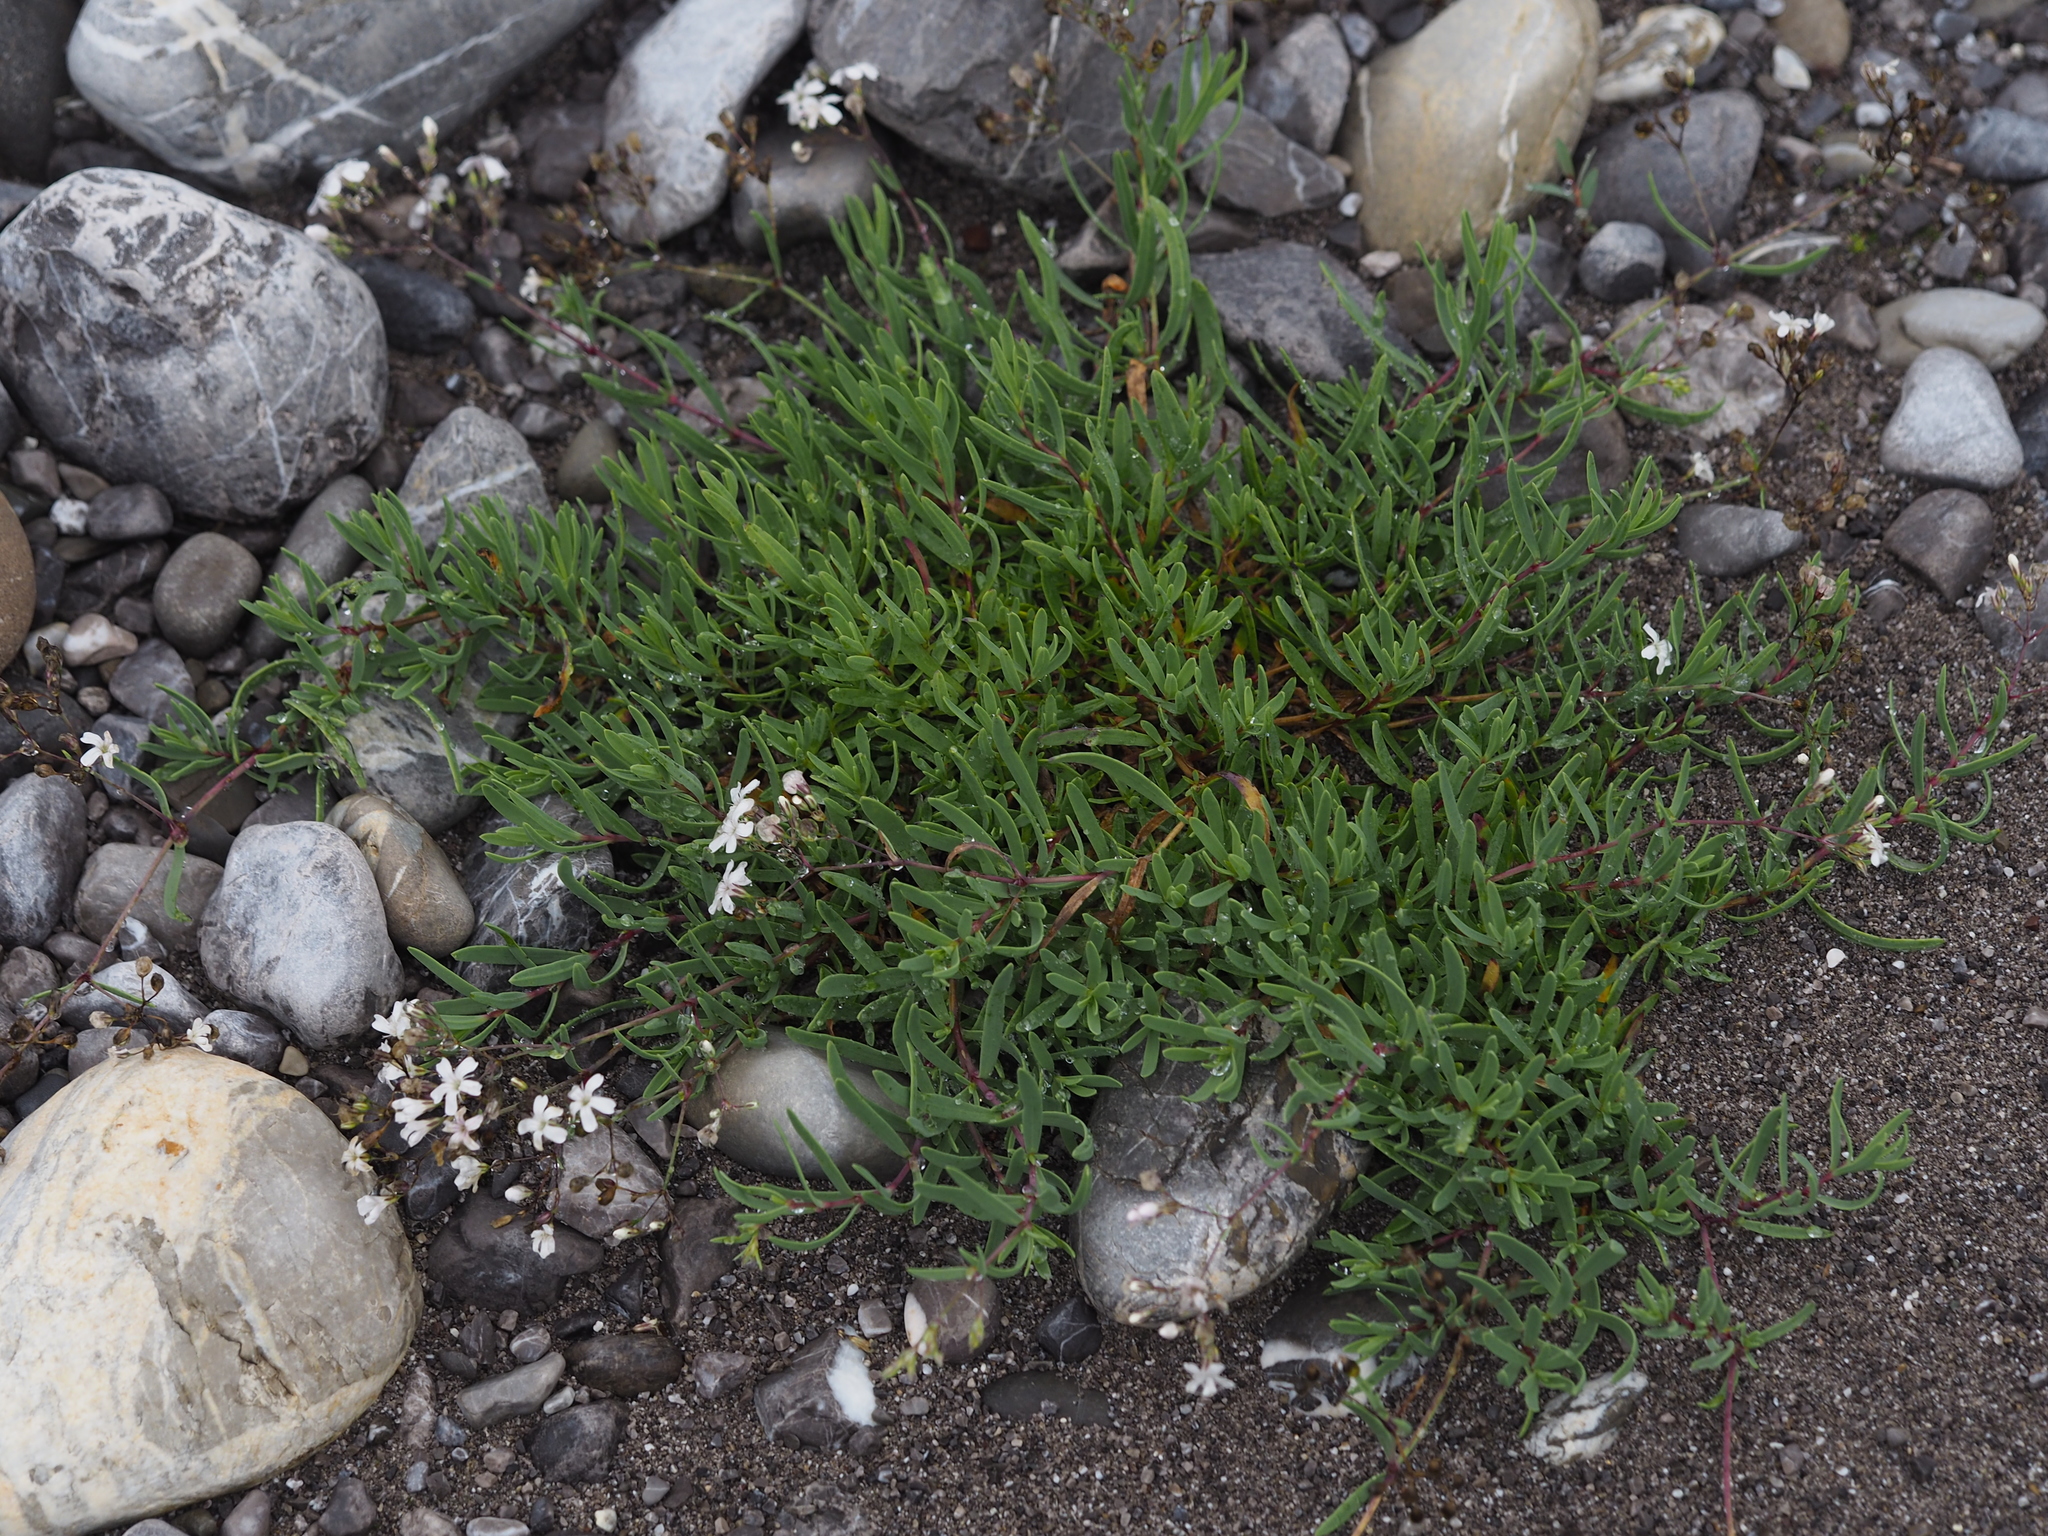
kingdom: Plantae
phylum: Tracheophyta
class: Magnoliopsida
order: Caryophyllales
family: Caryophyllaceae
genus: Gypsophila
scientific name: Gypsophila repens
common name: Creeping baby's-breath
